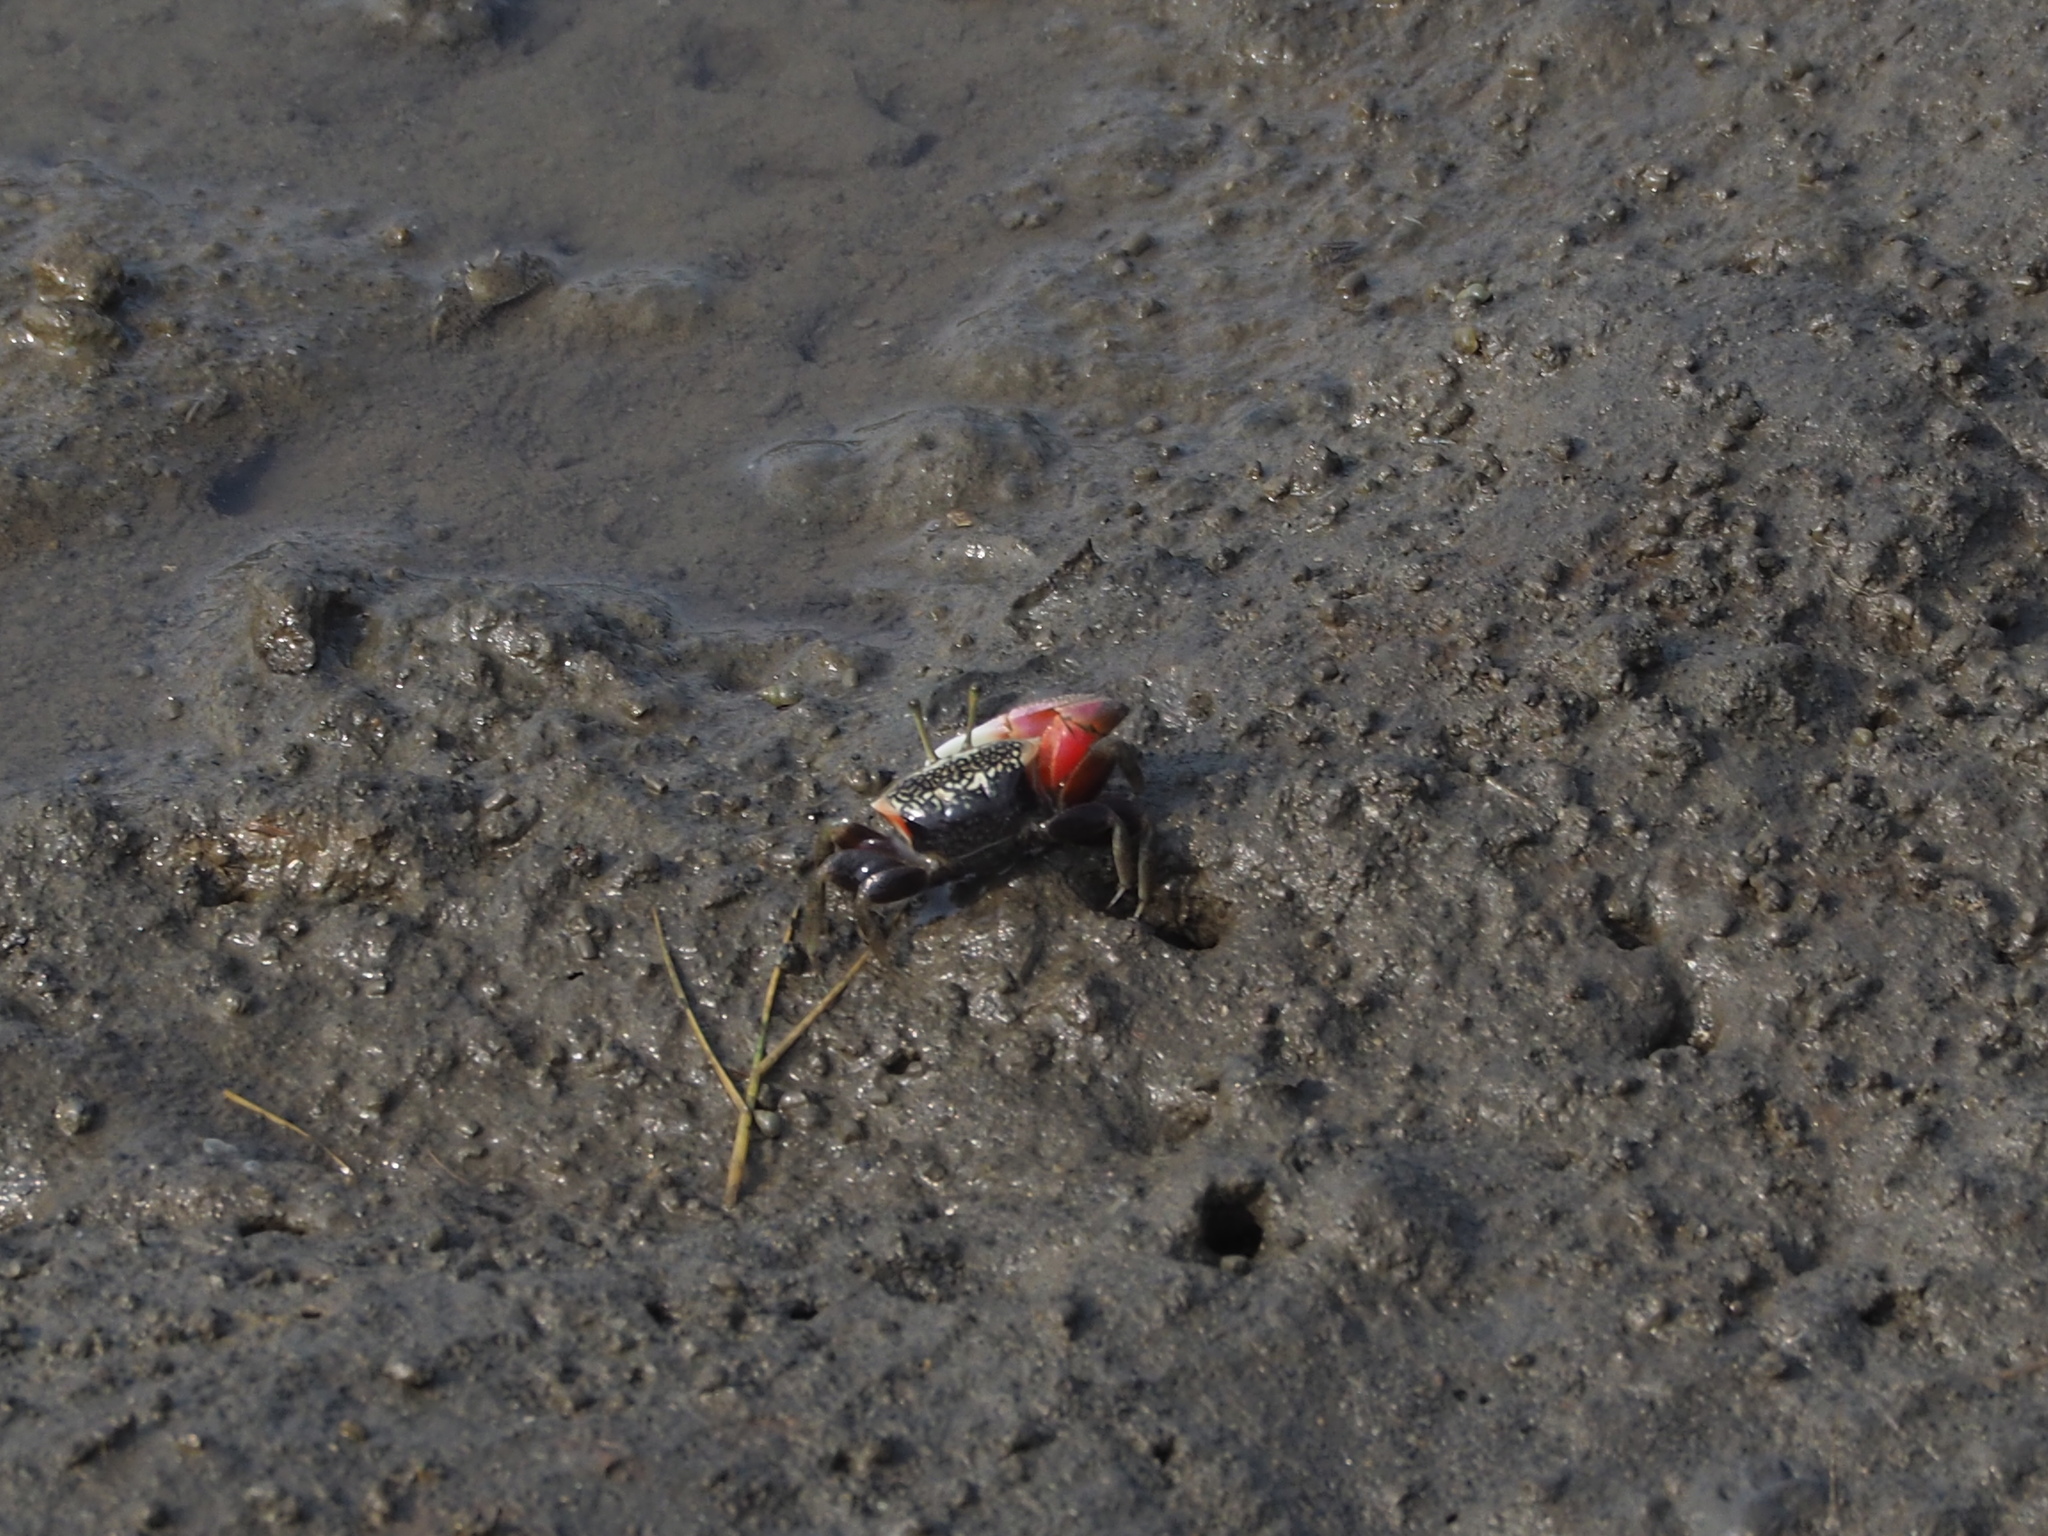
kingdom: Animalia
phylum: Arthropoda
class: Malacostraca
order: Decapoda
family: Ocypodidae
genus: Tubuca
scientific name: Tubuca arcuata
